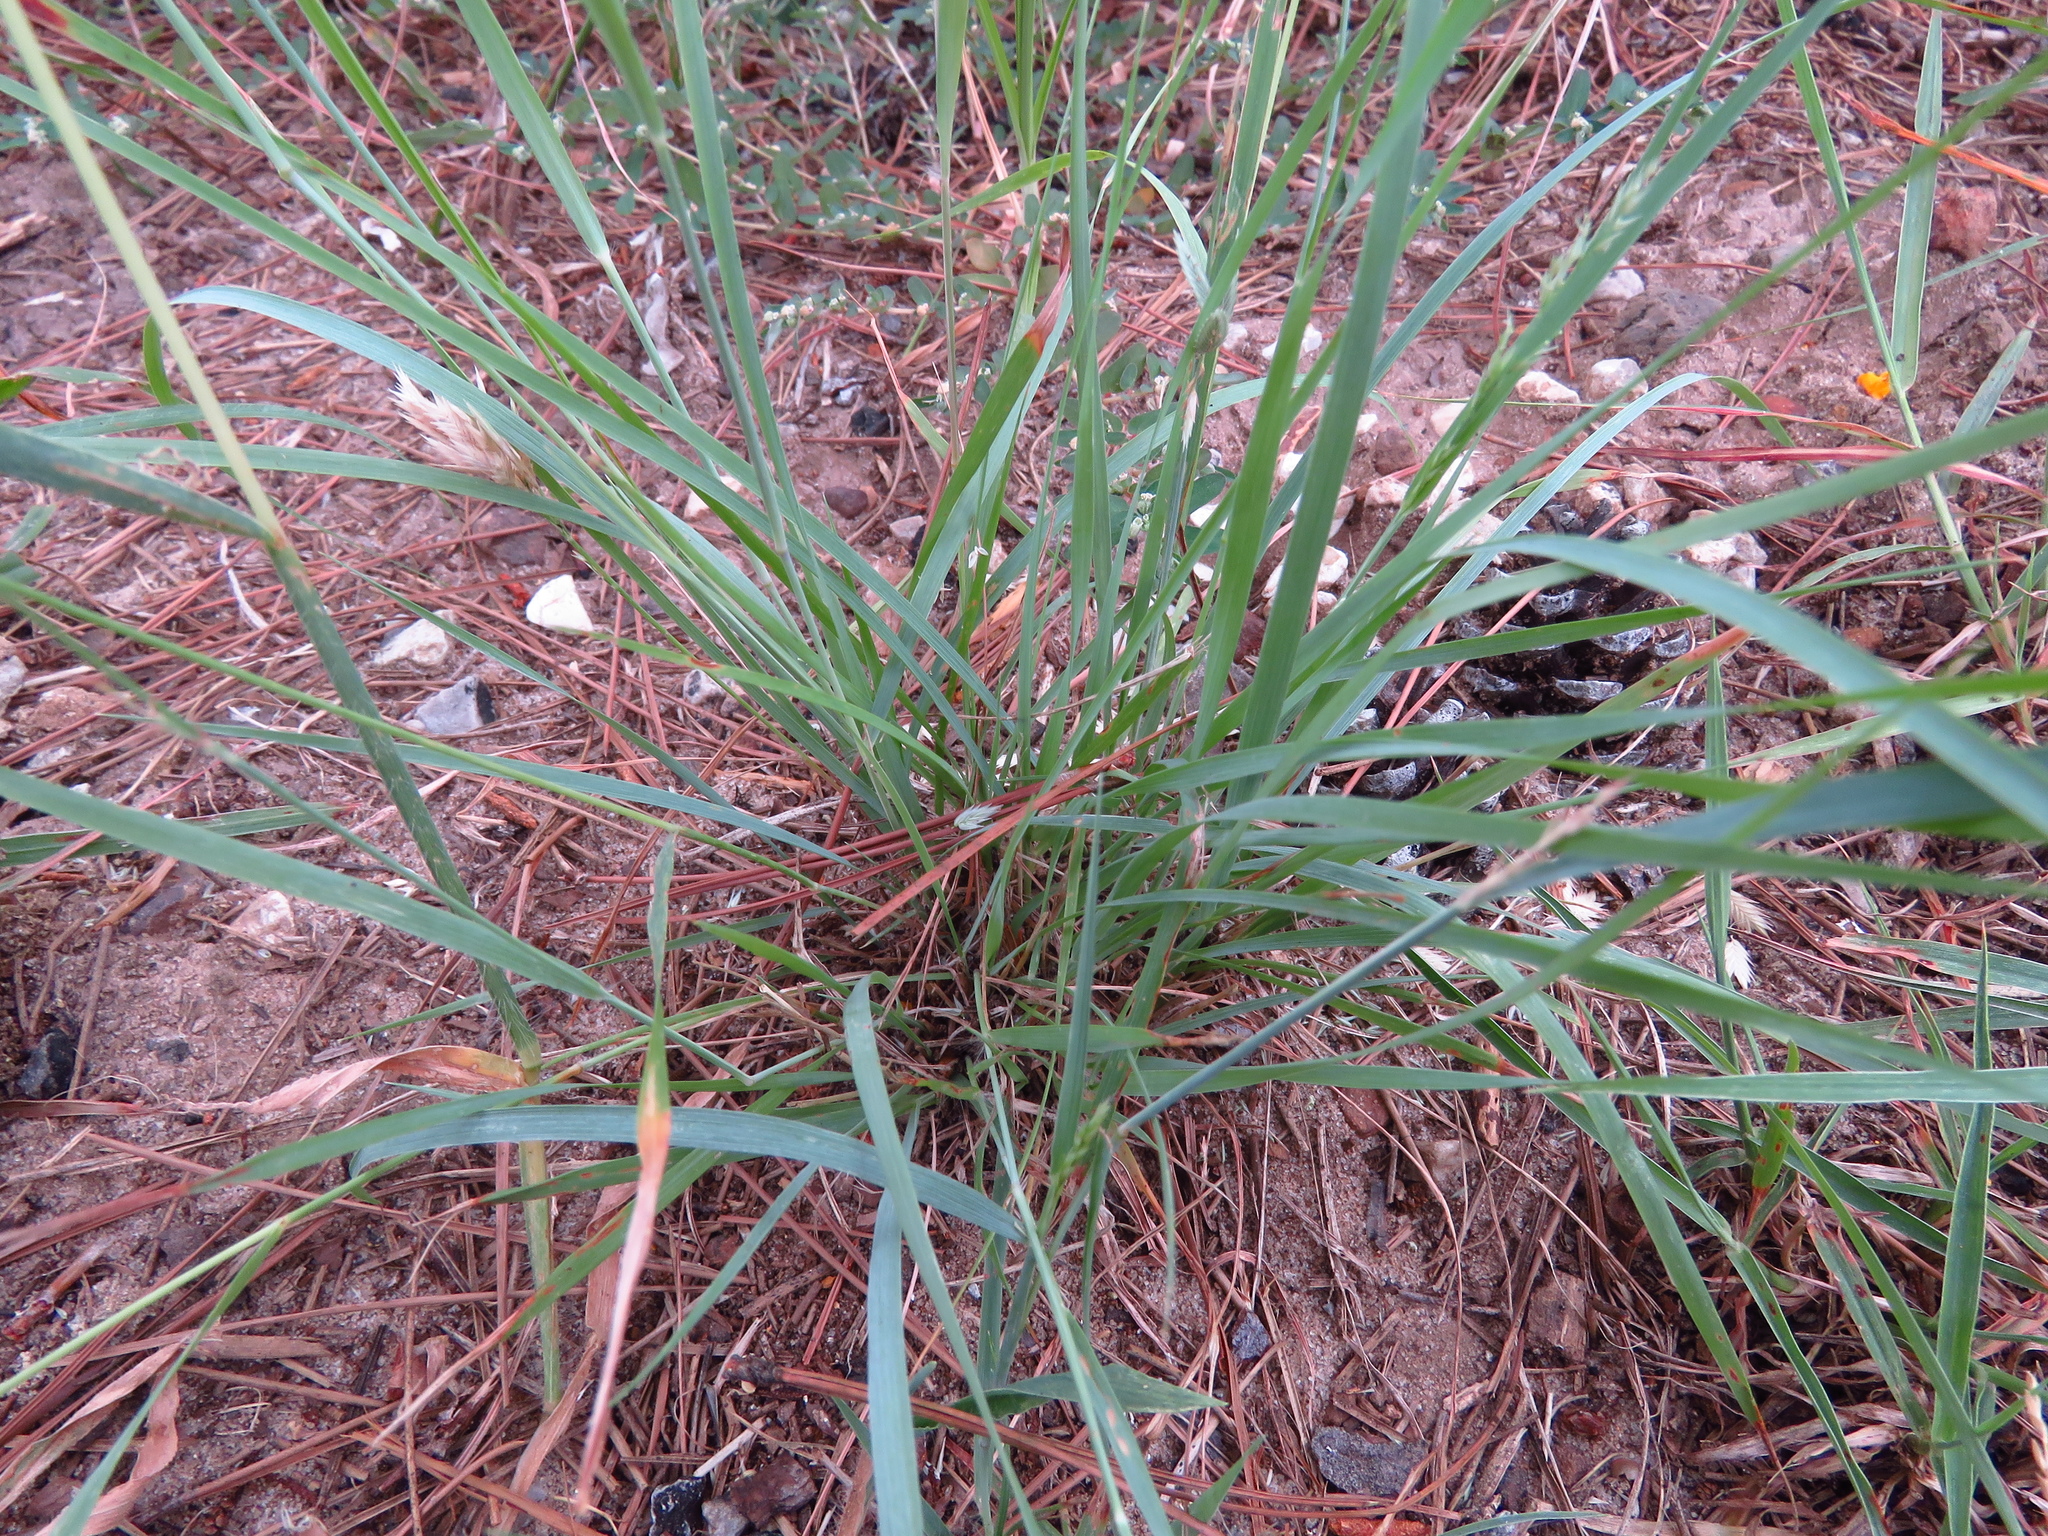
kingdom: Plantae
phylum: Tracheophyta
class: Liliopsida
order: Poales
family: Poaceae
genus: Eragrostis
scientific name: Eragrostis secundiflora
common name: Red love grass
